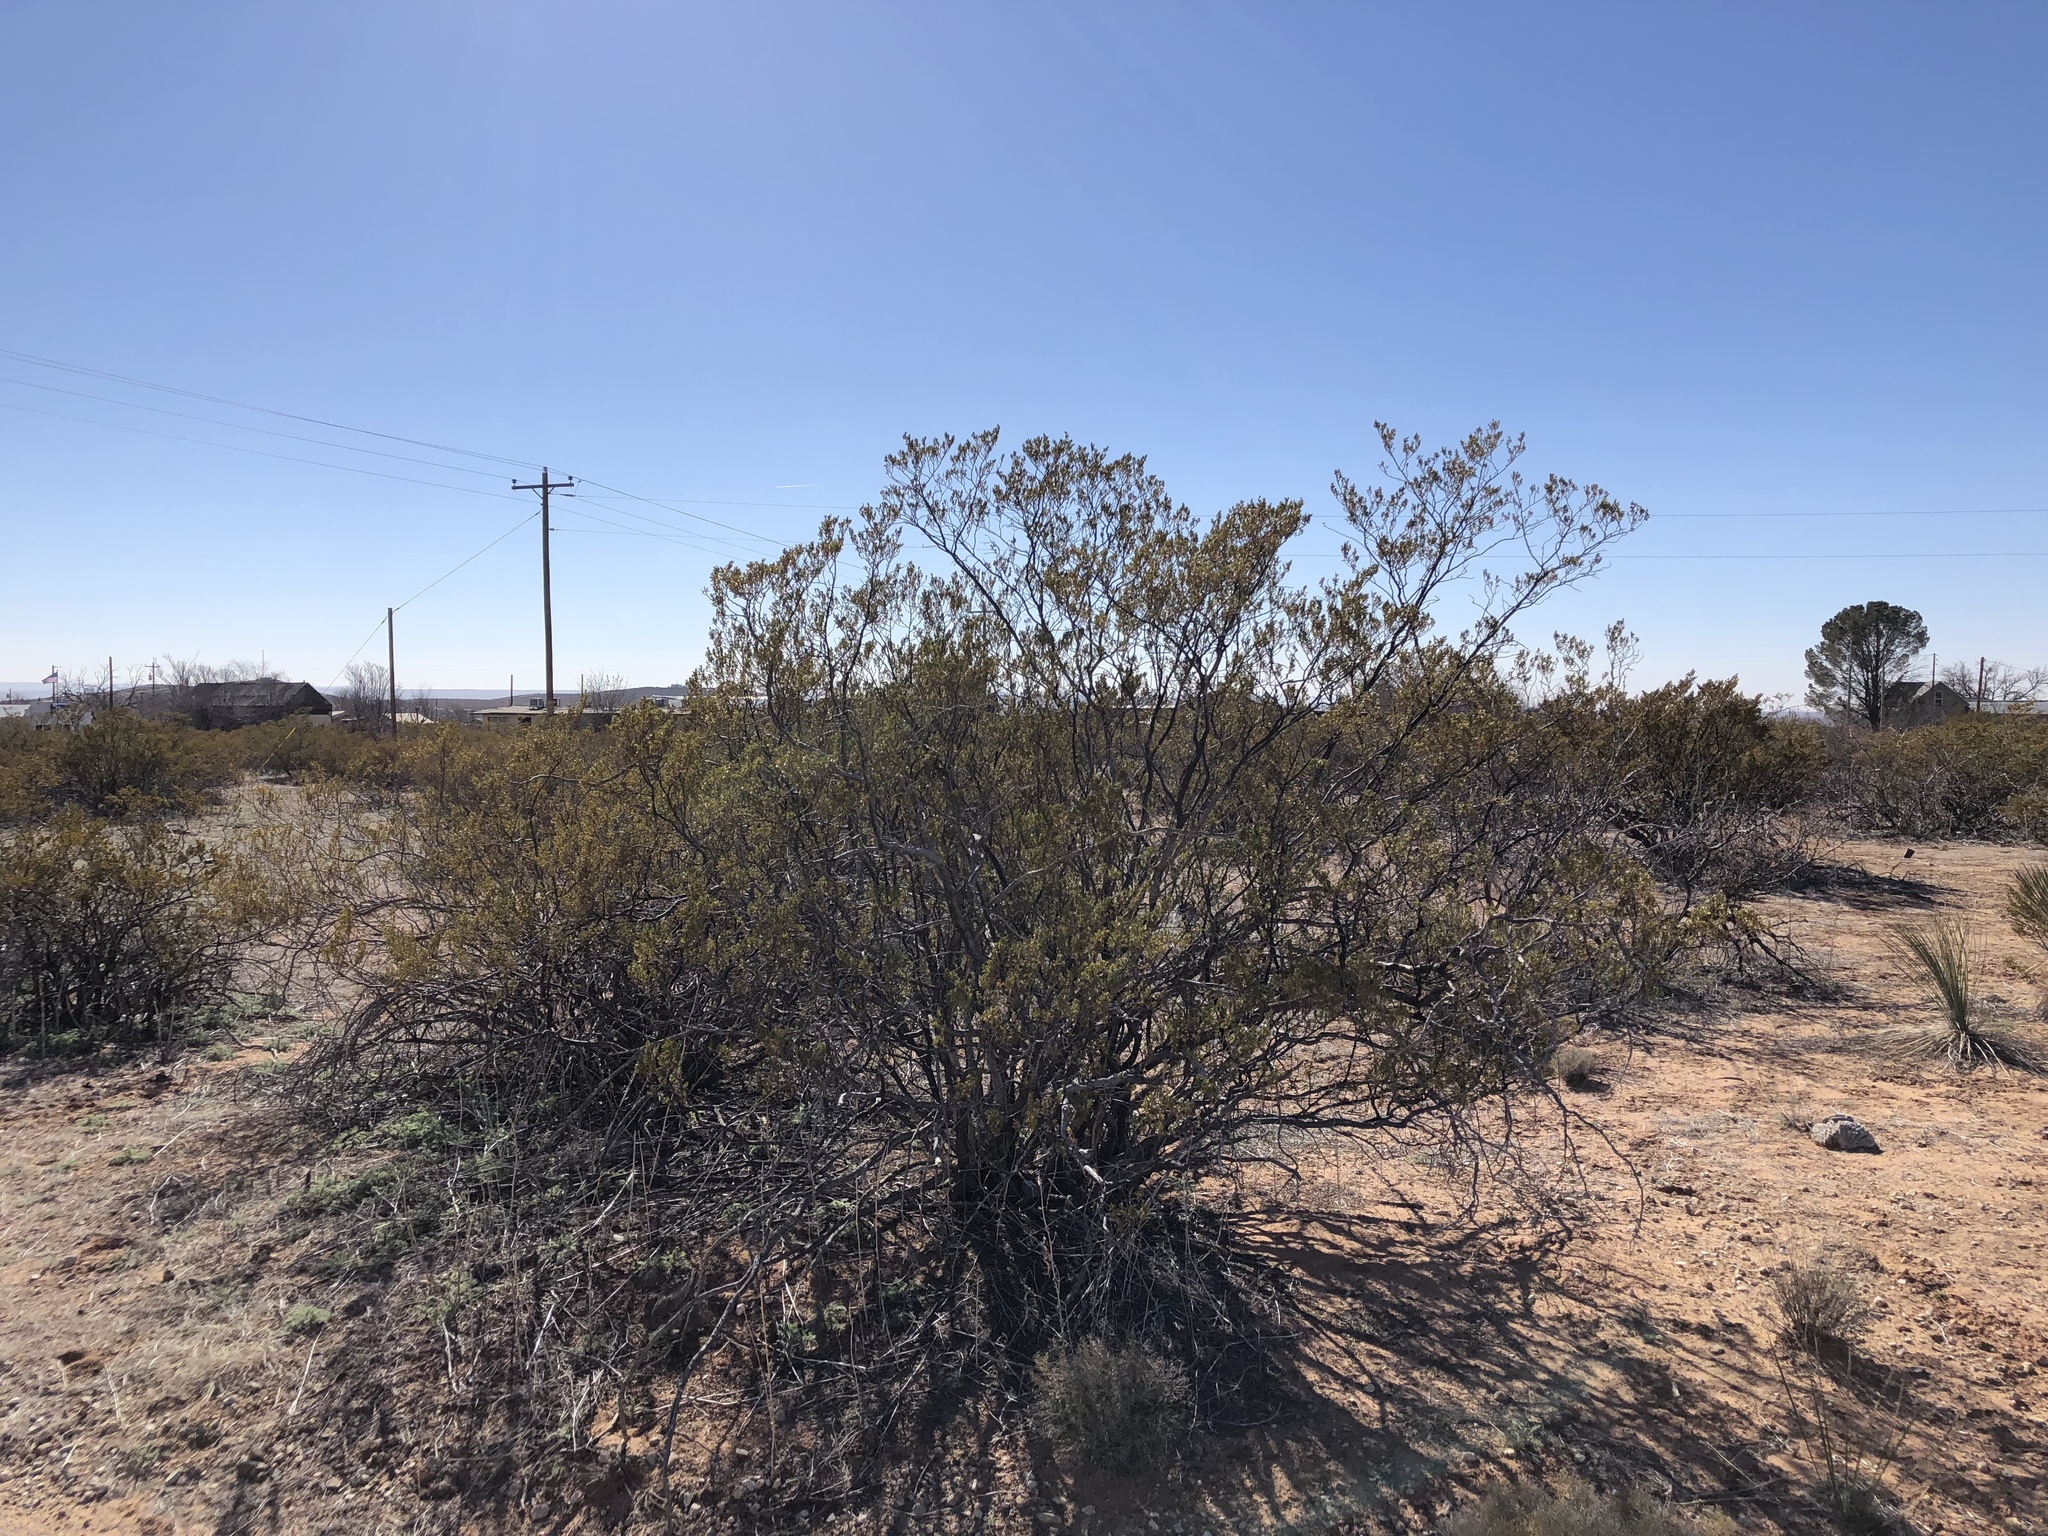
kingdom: Plantae
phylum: Tracheophyta
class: Magnoliopsida
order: Zygophyllales
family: Zygophyllaceae
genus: Larrea
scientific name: Larrea tridentata
